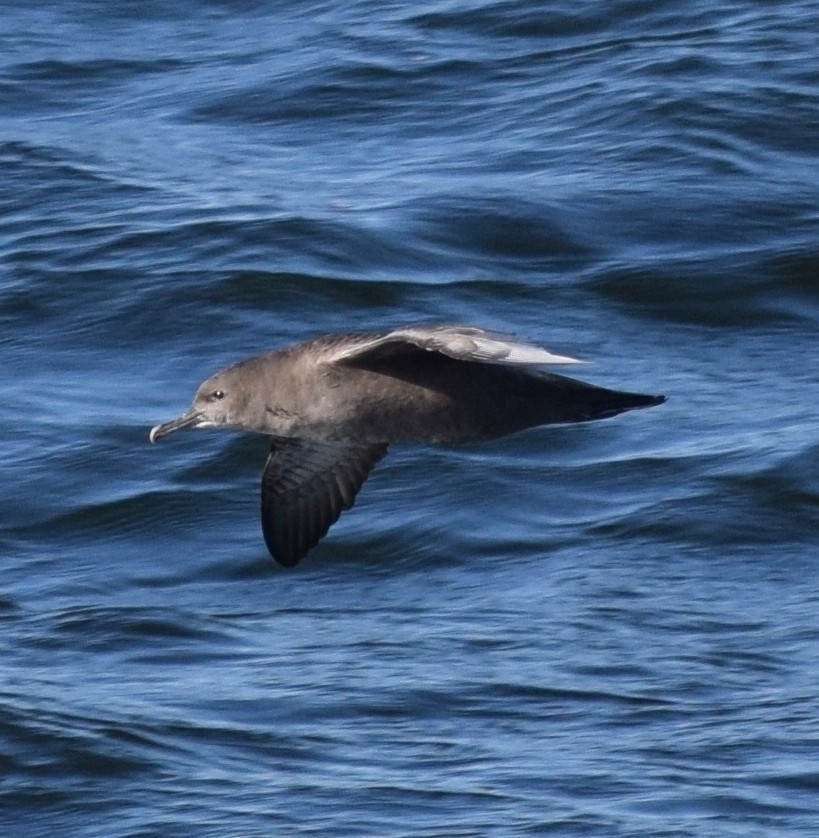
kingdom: Animalia
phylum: Chordata
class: Aves
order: Procellariiformes
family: Procellariidae
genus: Puffinus
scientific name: Puffinus griseus
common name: Sooty shearwater
